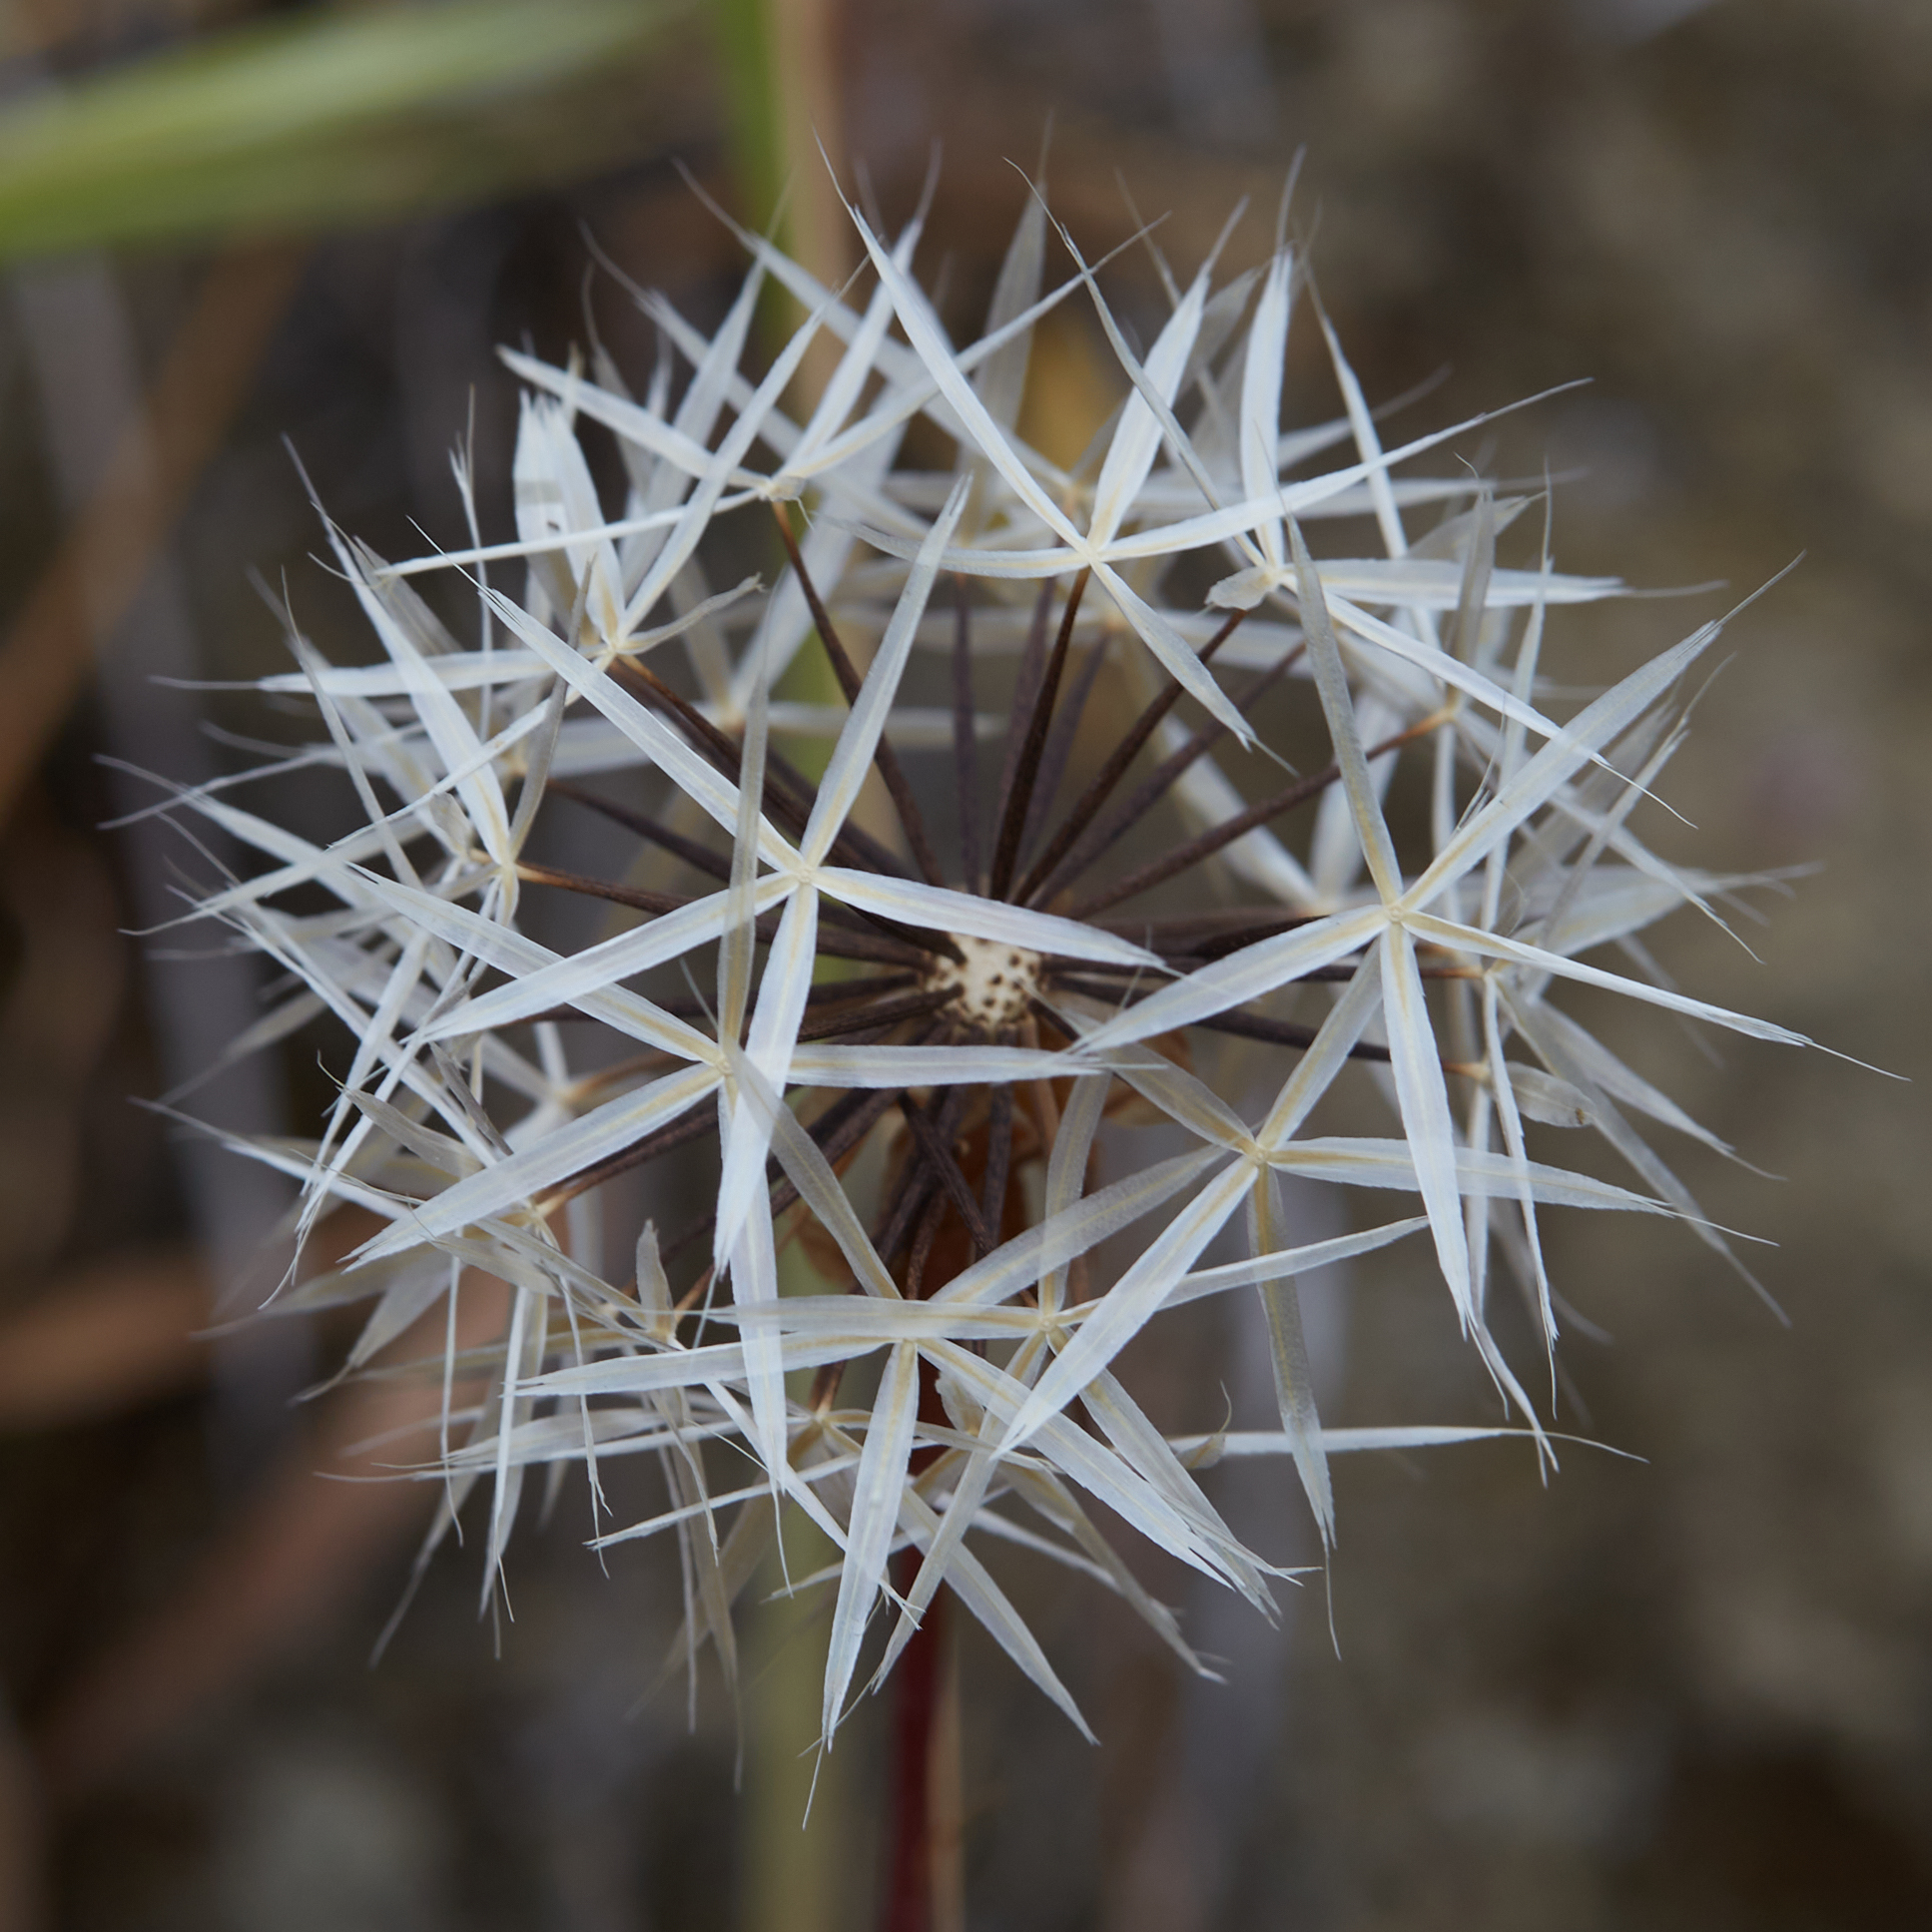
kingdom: Plantae
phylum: Tracheophyta
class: Magnoliopsida
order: Asterales
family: Asteraceae
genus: Microseris
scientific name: Microseris lindleyi
